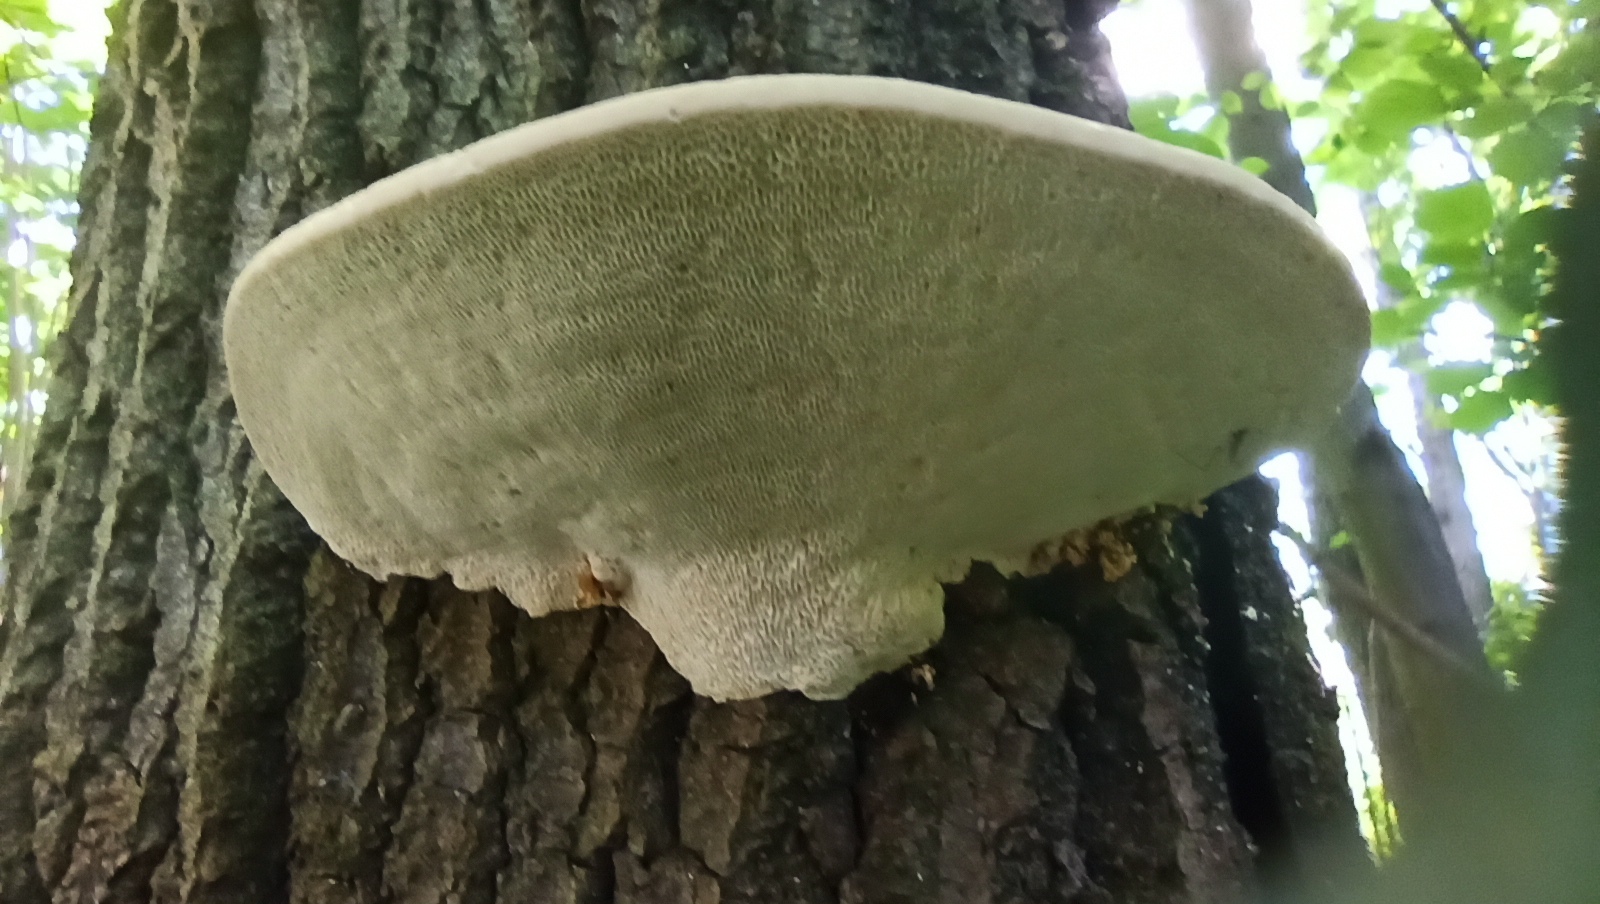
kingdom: Fungi
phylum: Basidiomycota
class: Agaricomycetes
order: Polyporales
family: Polyporaceae
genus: Trametes
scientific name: Trametes gibbosa
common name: Lumpy bracket
